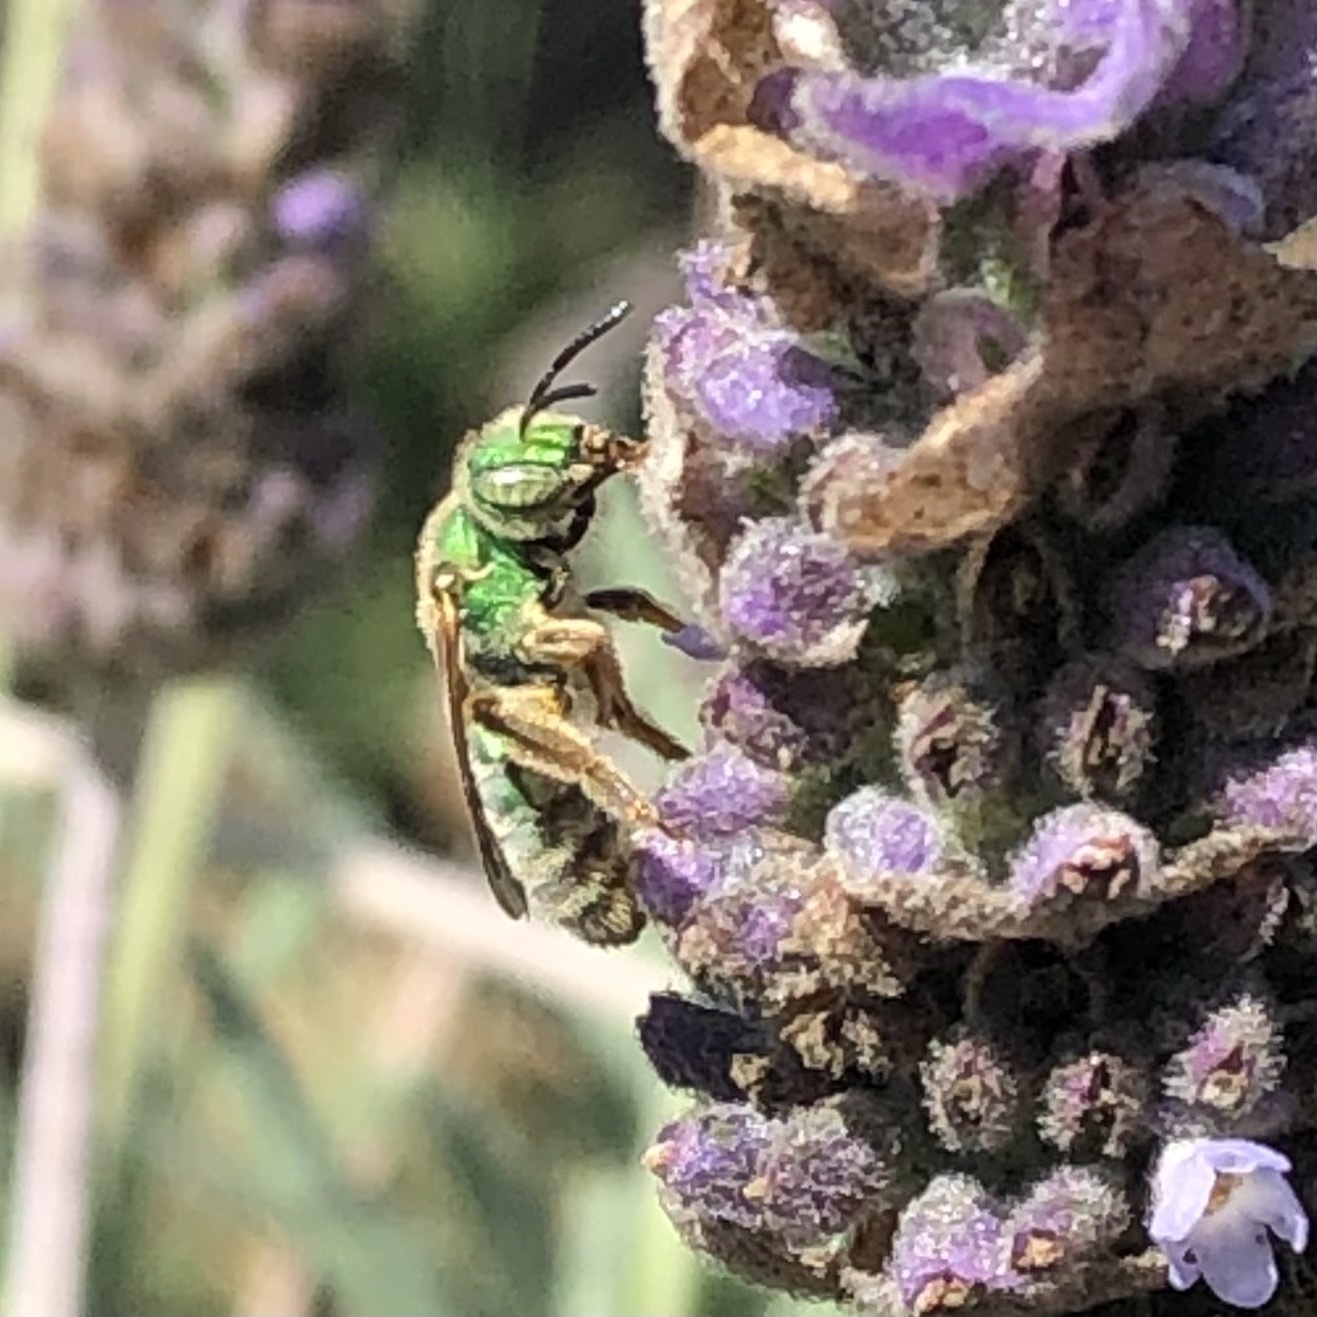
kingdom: Animalia
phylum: Arthropoda
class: Insecta
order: Hymenoptera
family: Halictidae
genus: Agapostemon
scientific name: Agapostemon
